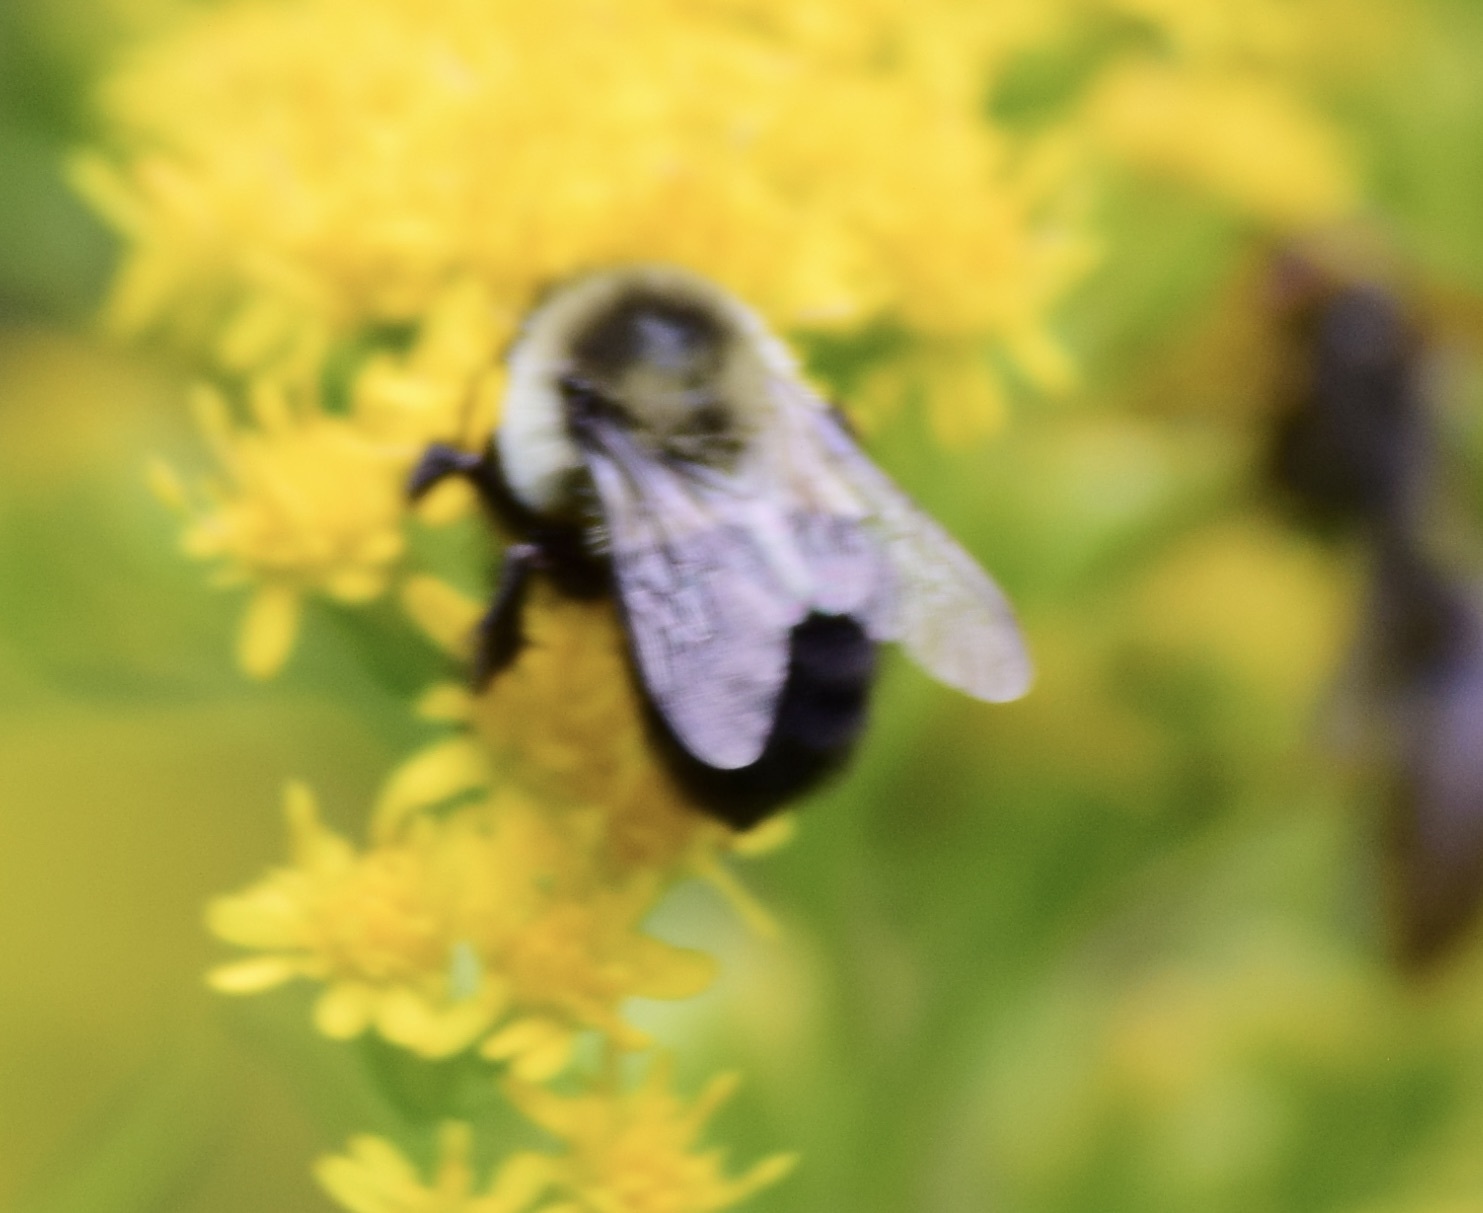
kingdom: Animalia
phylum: Arthropoda
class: Insecta
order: Hymenoptera
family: Apidae
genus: Bombus
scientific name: Bombus impatiens
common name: Common eastern bumble bee
